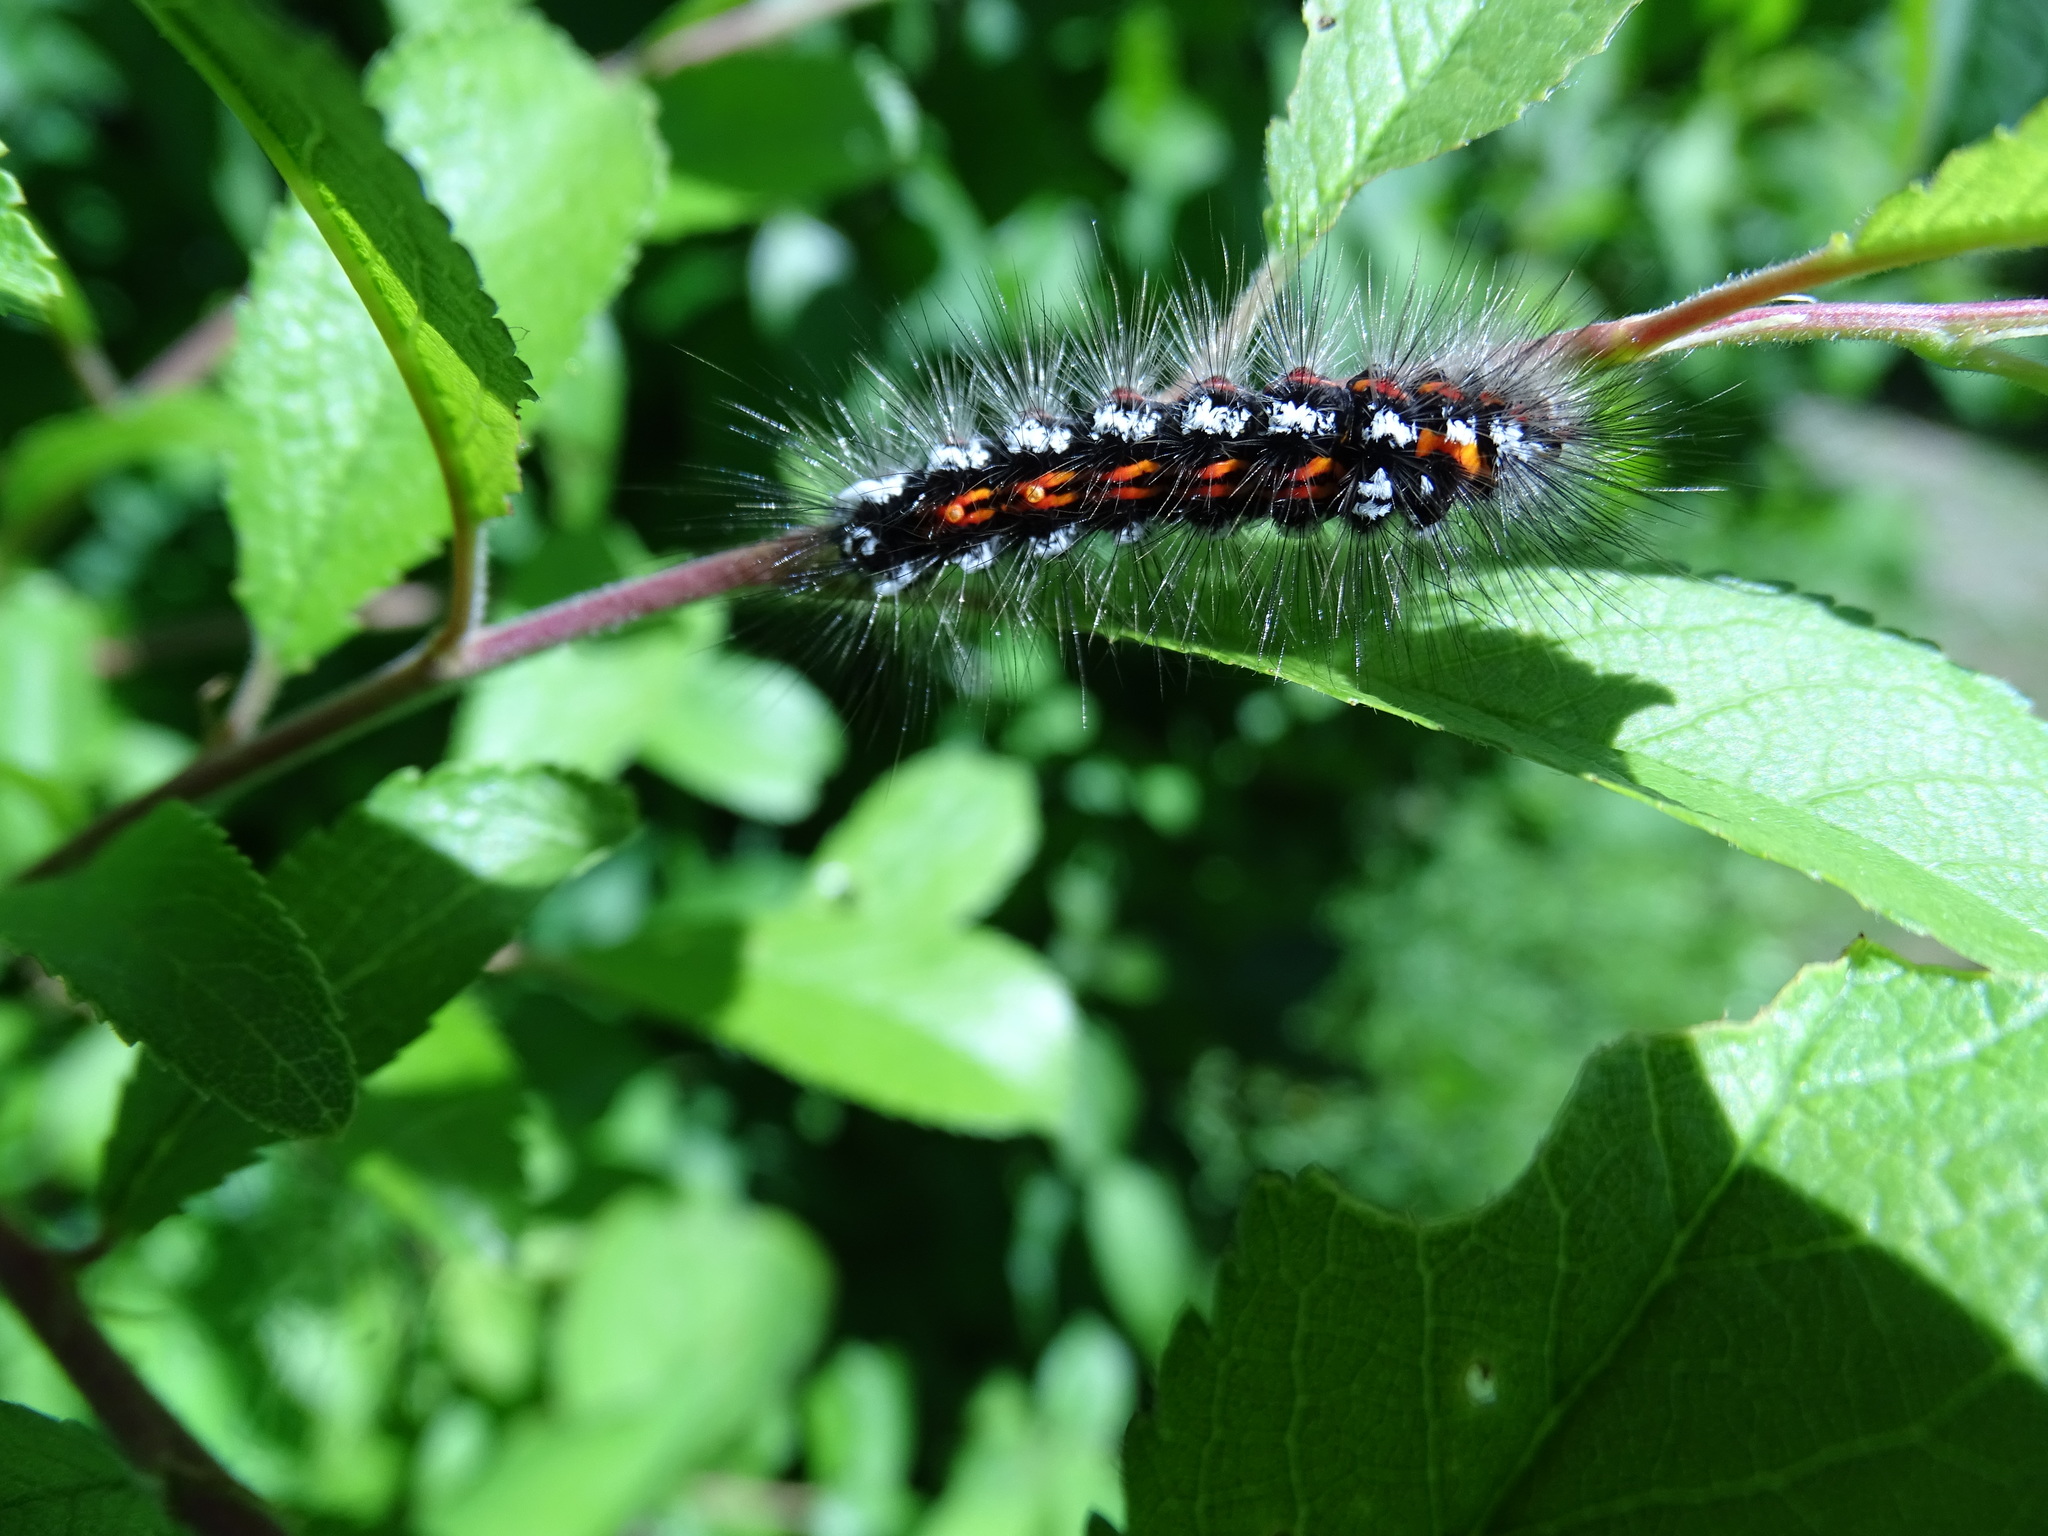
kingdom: Animalia
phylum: Arthropoda
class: Insecta
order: Lepidoptera
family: Erebidae
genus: Sphrageidus
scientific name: Sphrageidus similis
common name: Yellow-tail
